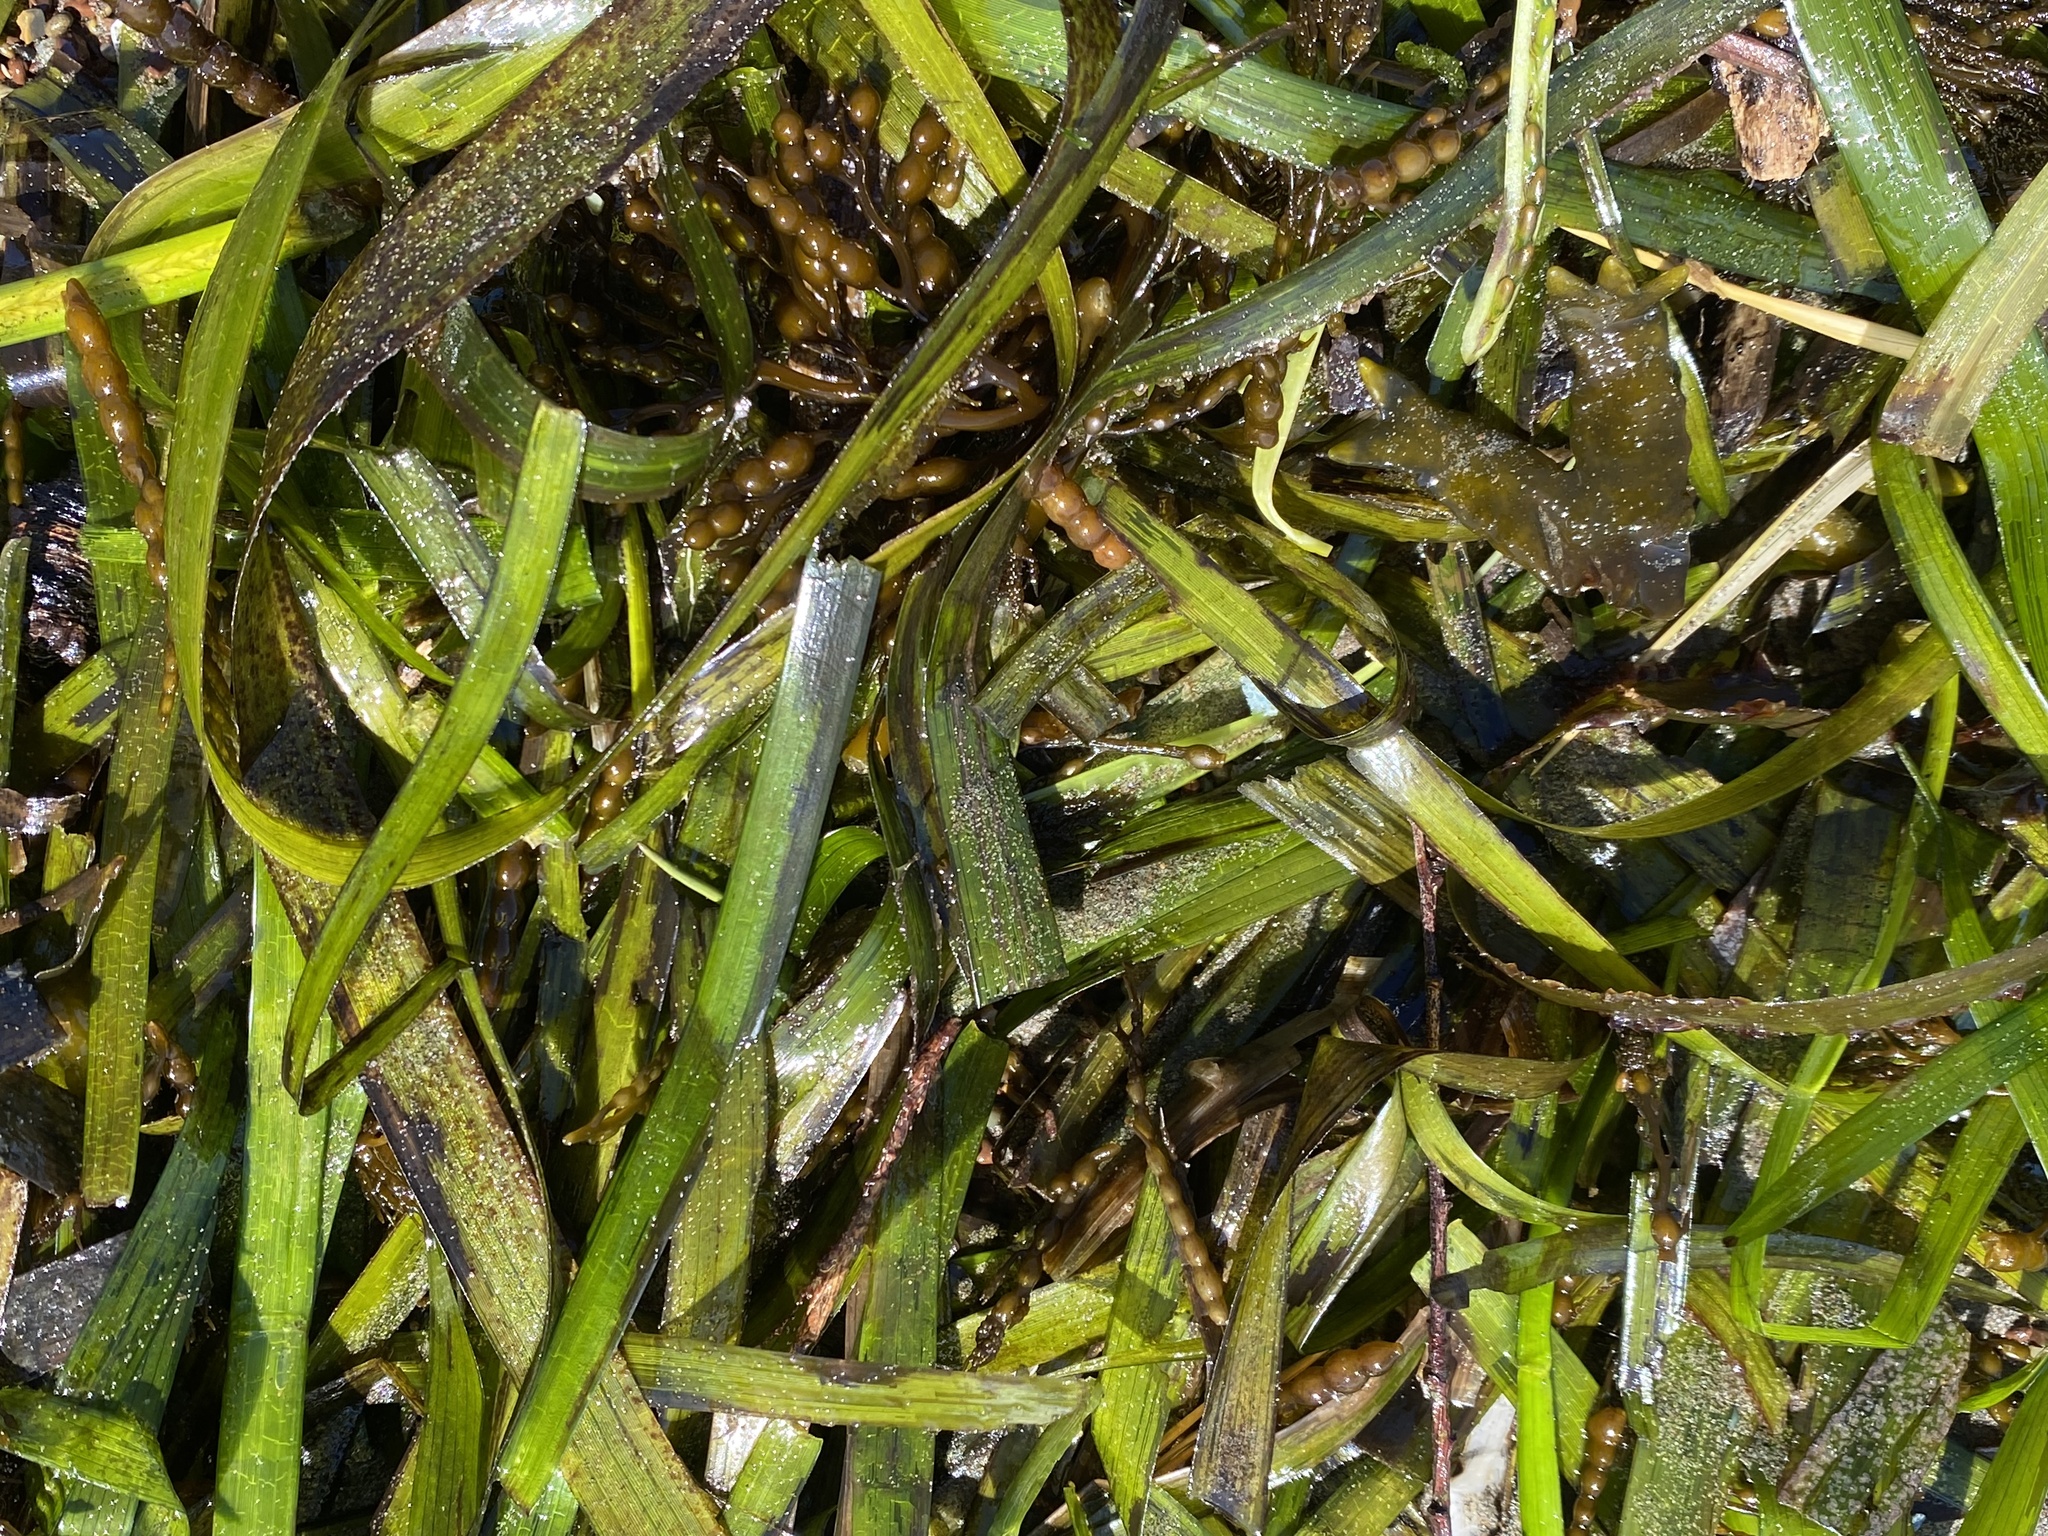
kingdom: Plantae
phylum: Tracheophyta
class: Liliopsida
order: Alismatales
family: Zosteraceae
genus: Zostera
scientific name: Zostera marina
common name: Eelgrass
